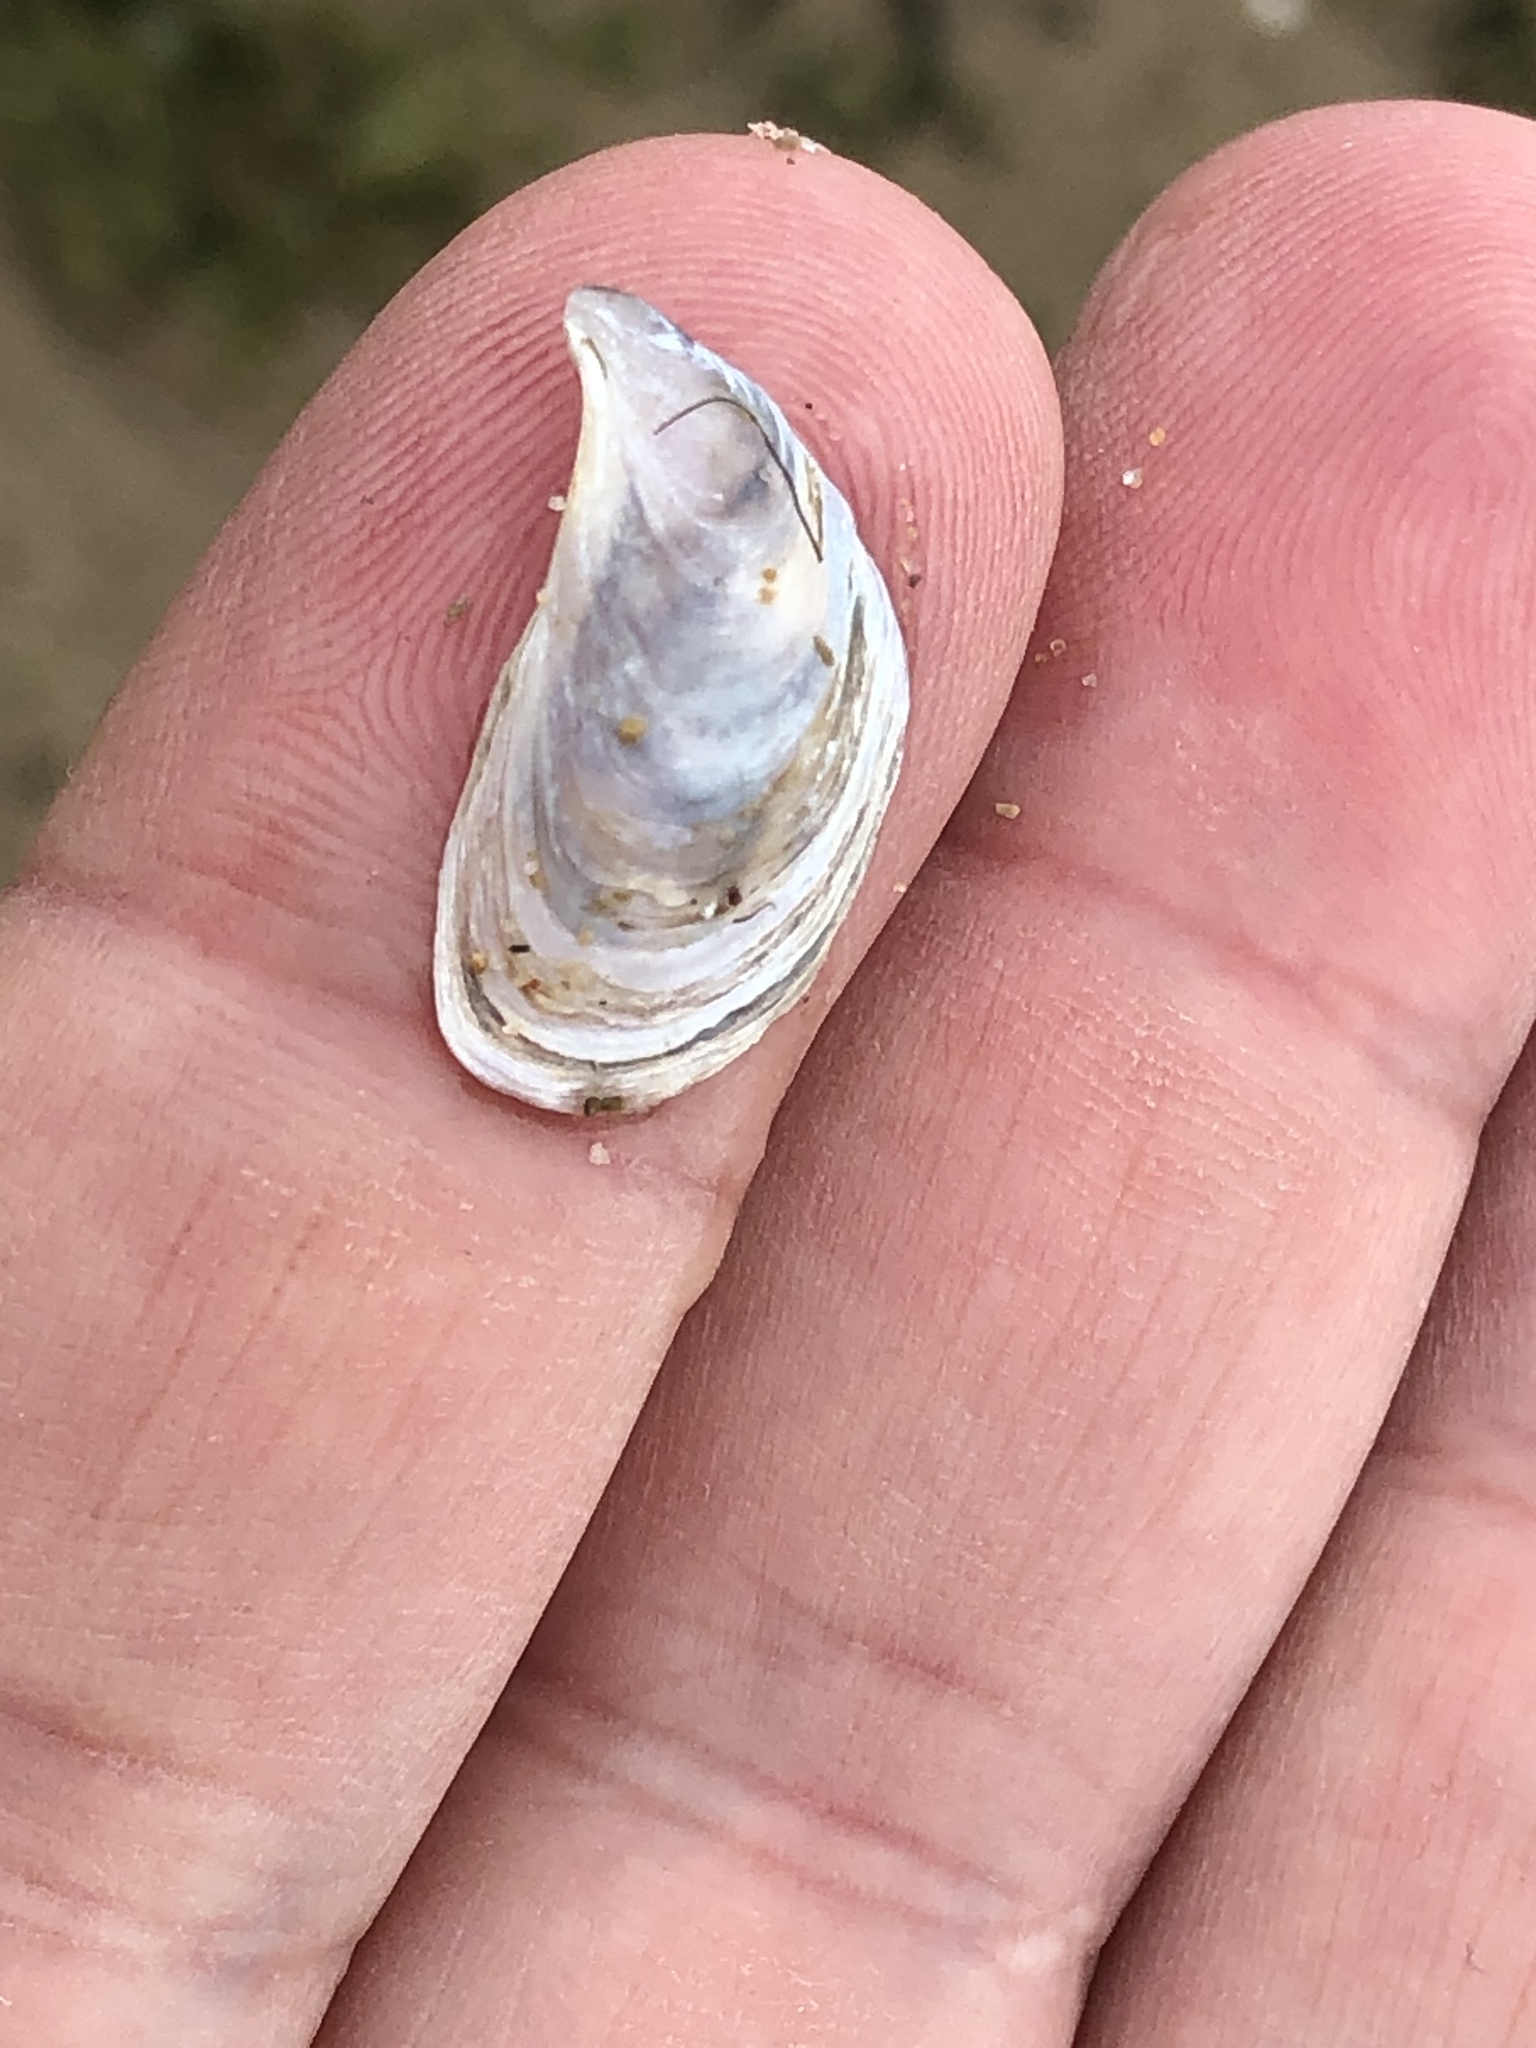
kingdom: Animalia
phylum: Mollusca
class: Bivalvia
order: Myida
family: Dreissenidae
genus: Dreissena
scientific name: Dreissena bugensis
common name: Quagga mussel
